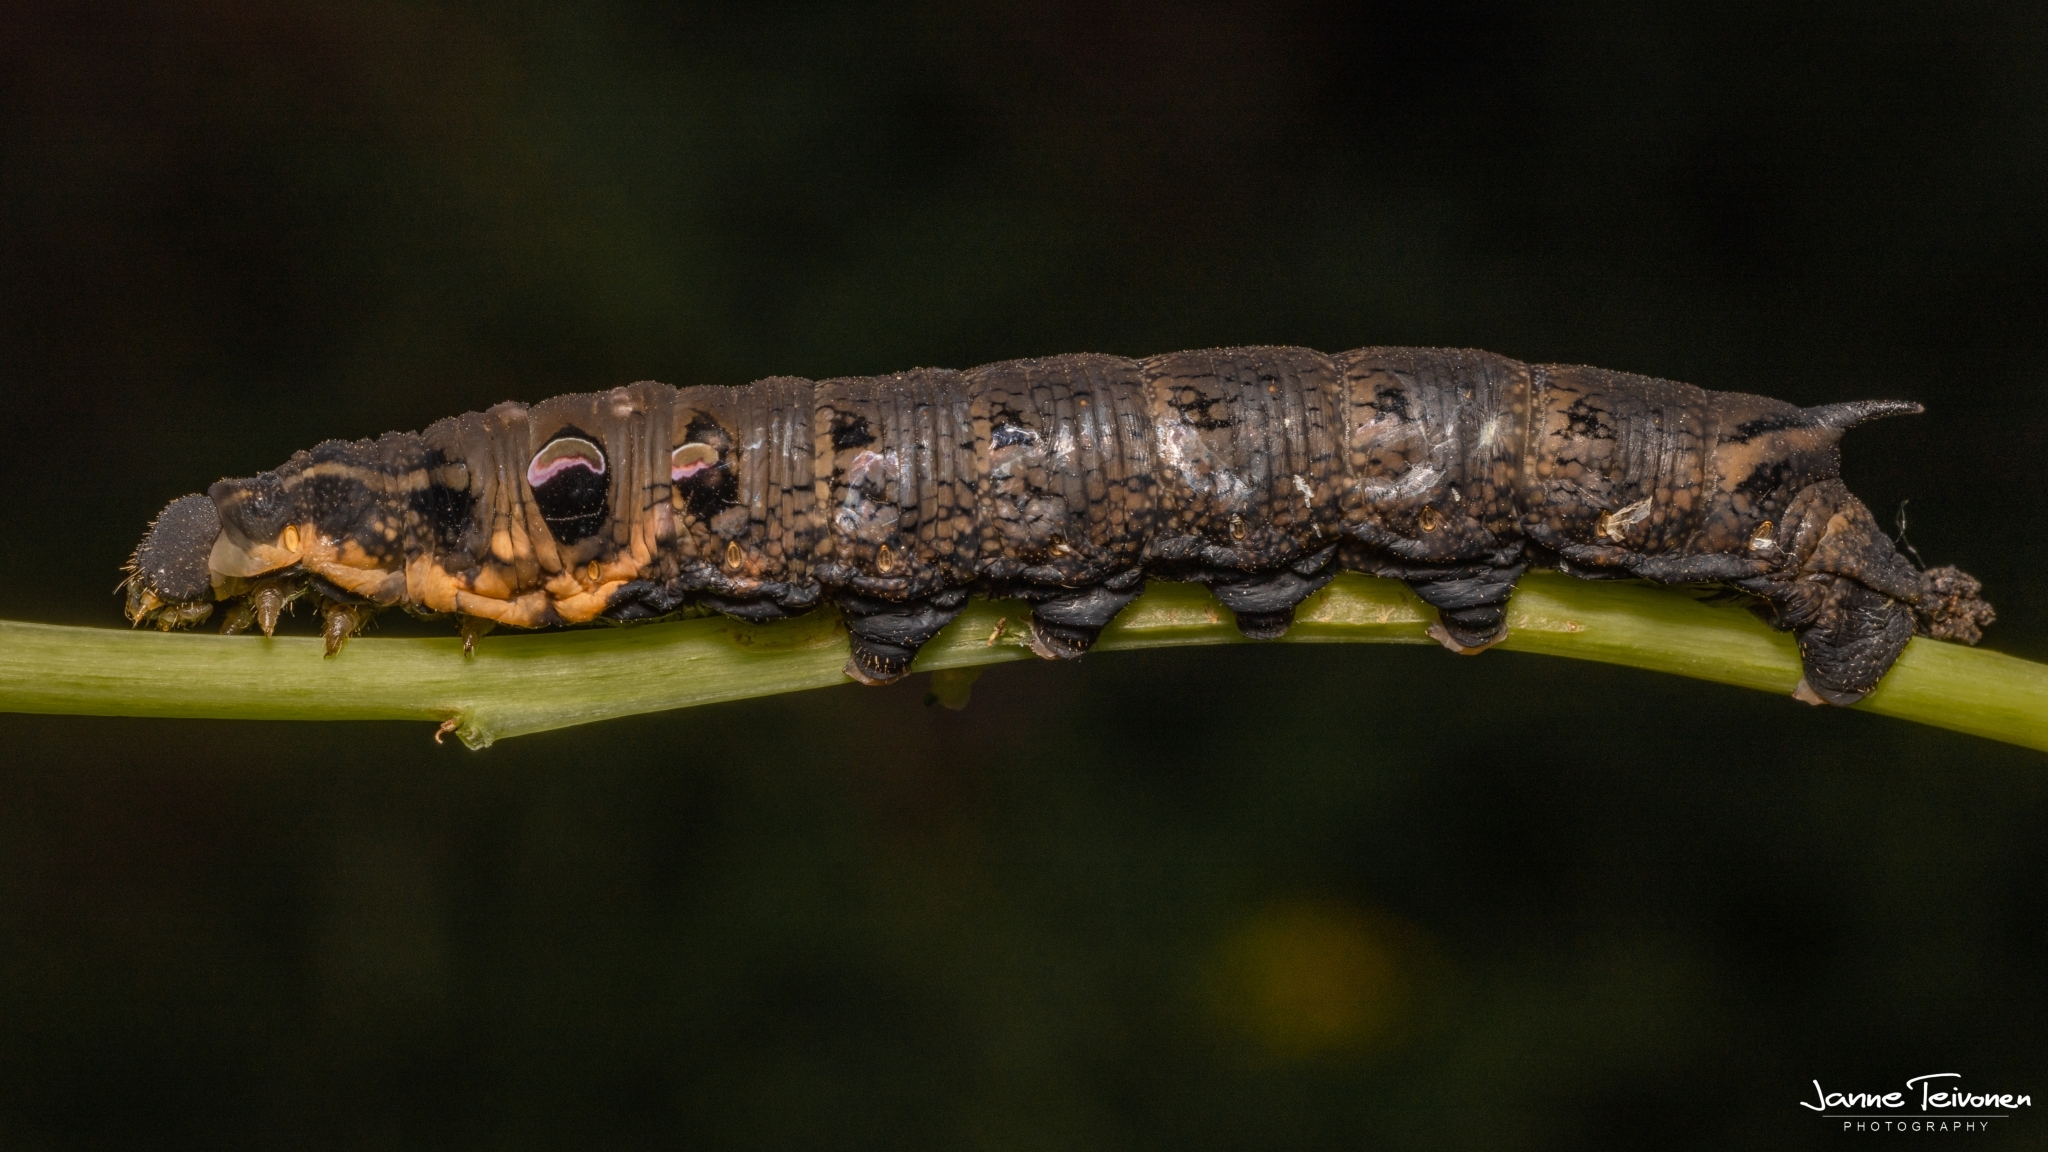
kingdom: Animalia
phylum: Arthropoda
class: Insecta
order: Lepidoptera
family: Sphingidae
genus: Deilephila
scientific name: Deilephila elpenor
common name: Elephant hawk-moth
